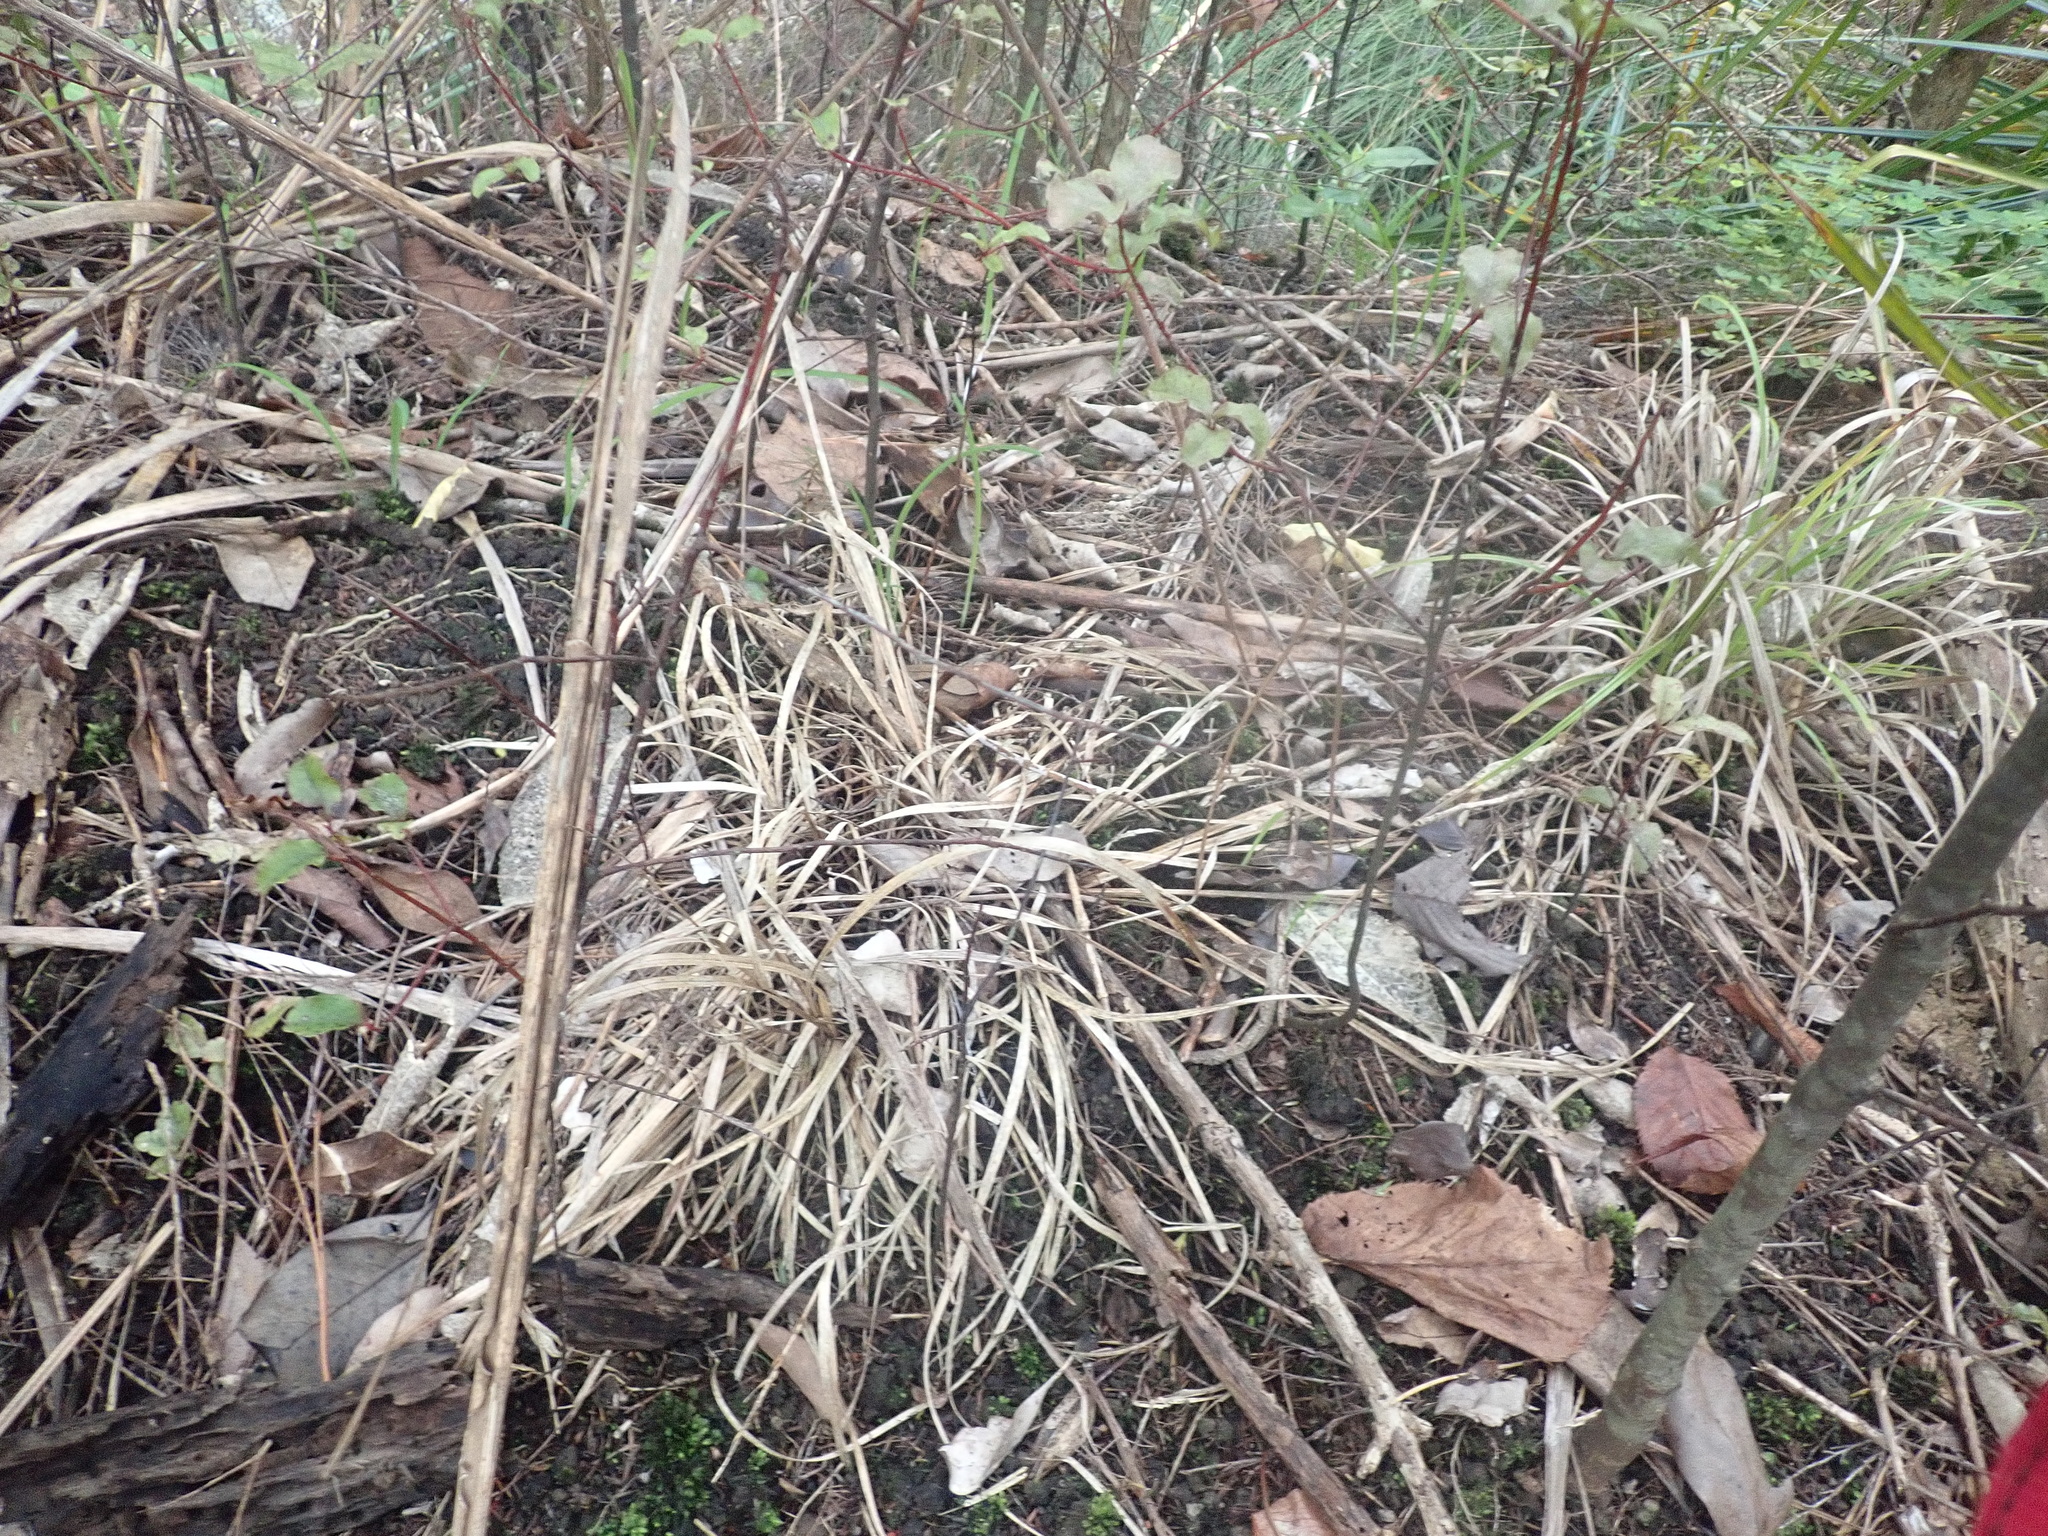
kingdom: Plantae
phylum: Tracheophyta
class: Liliopsida
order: Poales
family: Cyperaceae
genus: Carex
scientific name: Carex uncinata
